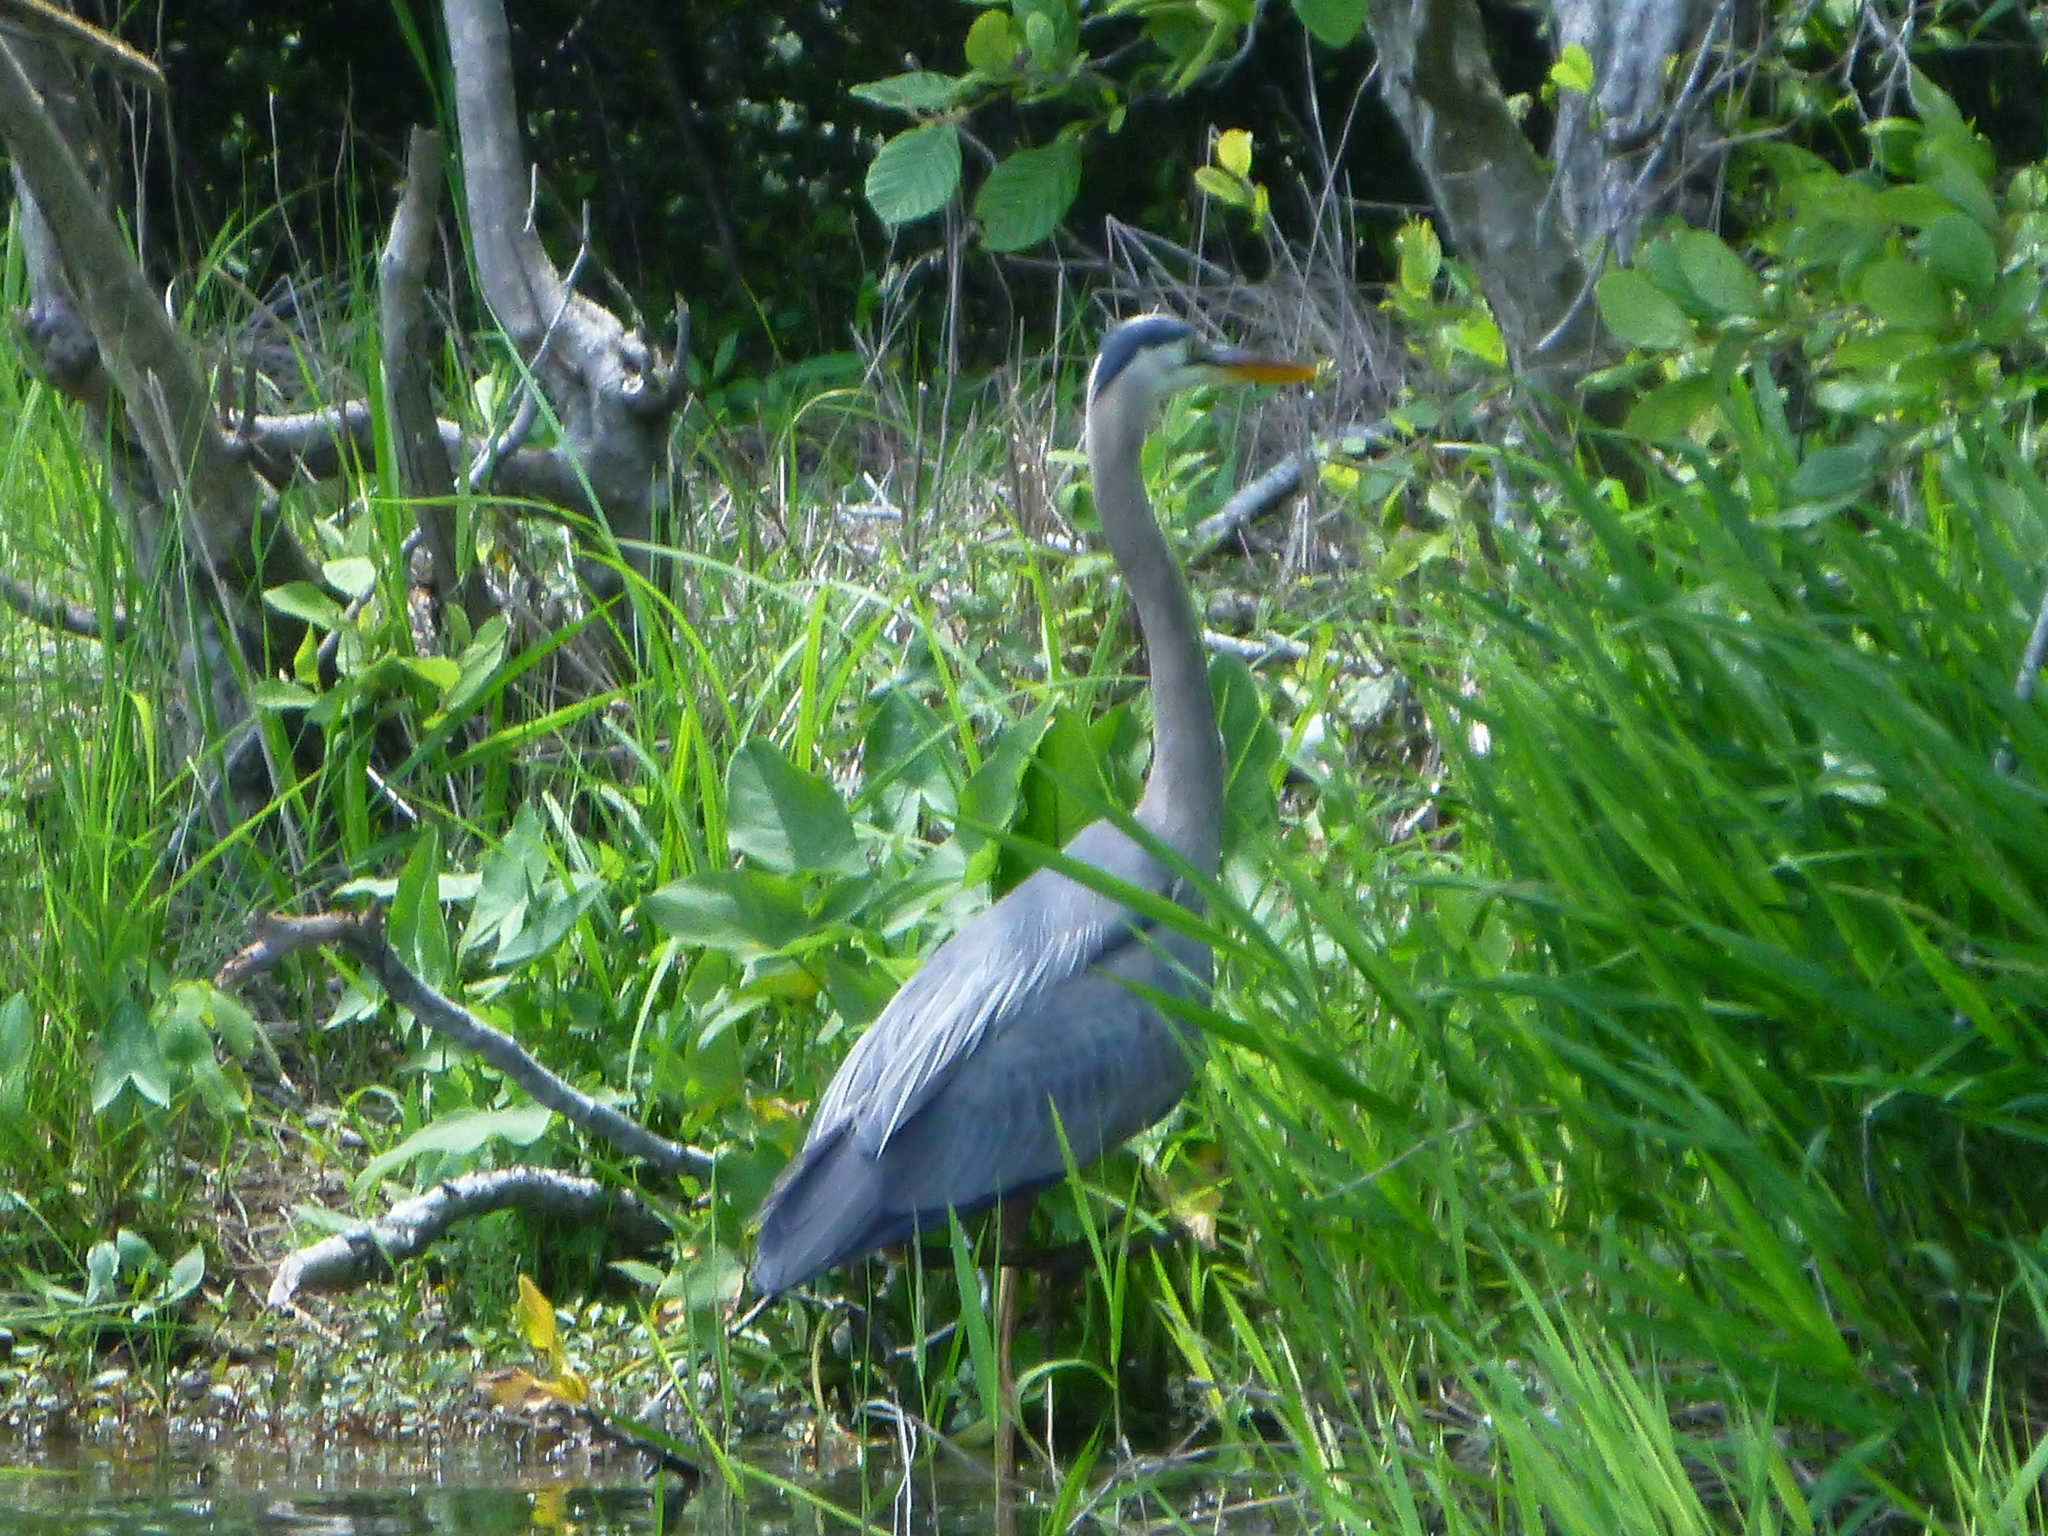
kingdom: Animalia
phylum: Chordata
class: Aves
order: Pelecaniformes
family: Ardeidae
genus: Ardea
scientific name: Ardea herodias
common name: Great blue heron
